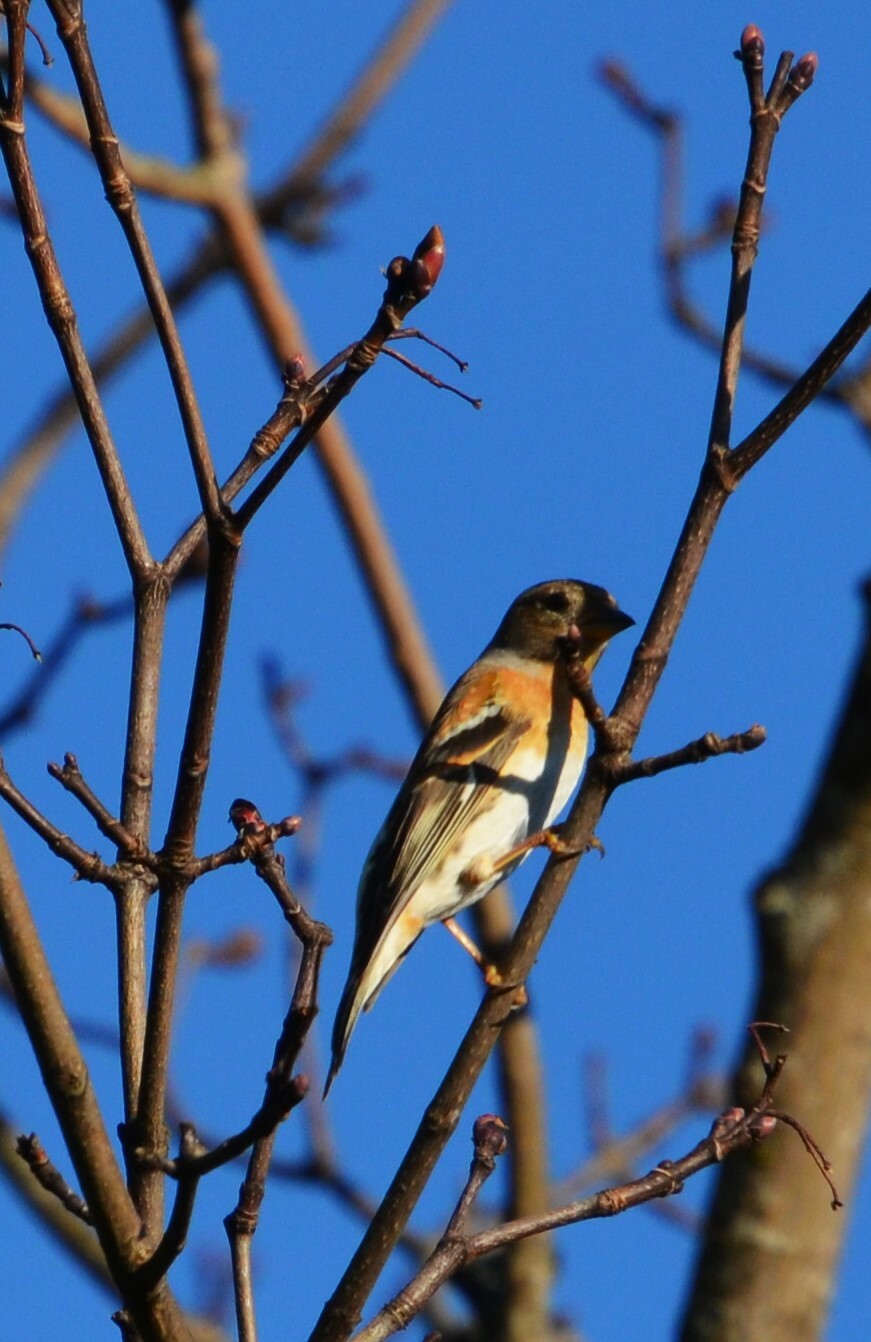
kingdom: Animalia
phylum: Chordata
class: Aves
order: Passeriformes
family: Fringillidae
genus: Fringilla
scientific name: Fringilla montifringilla
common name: Brambling
